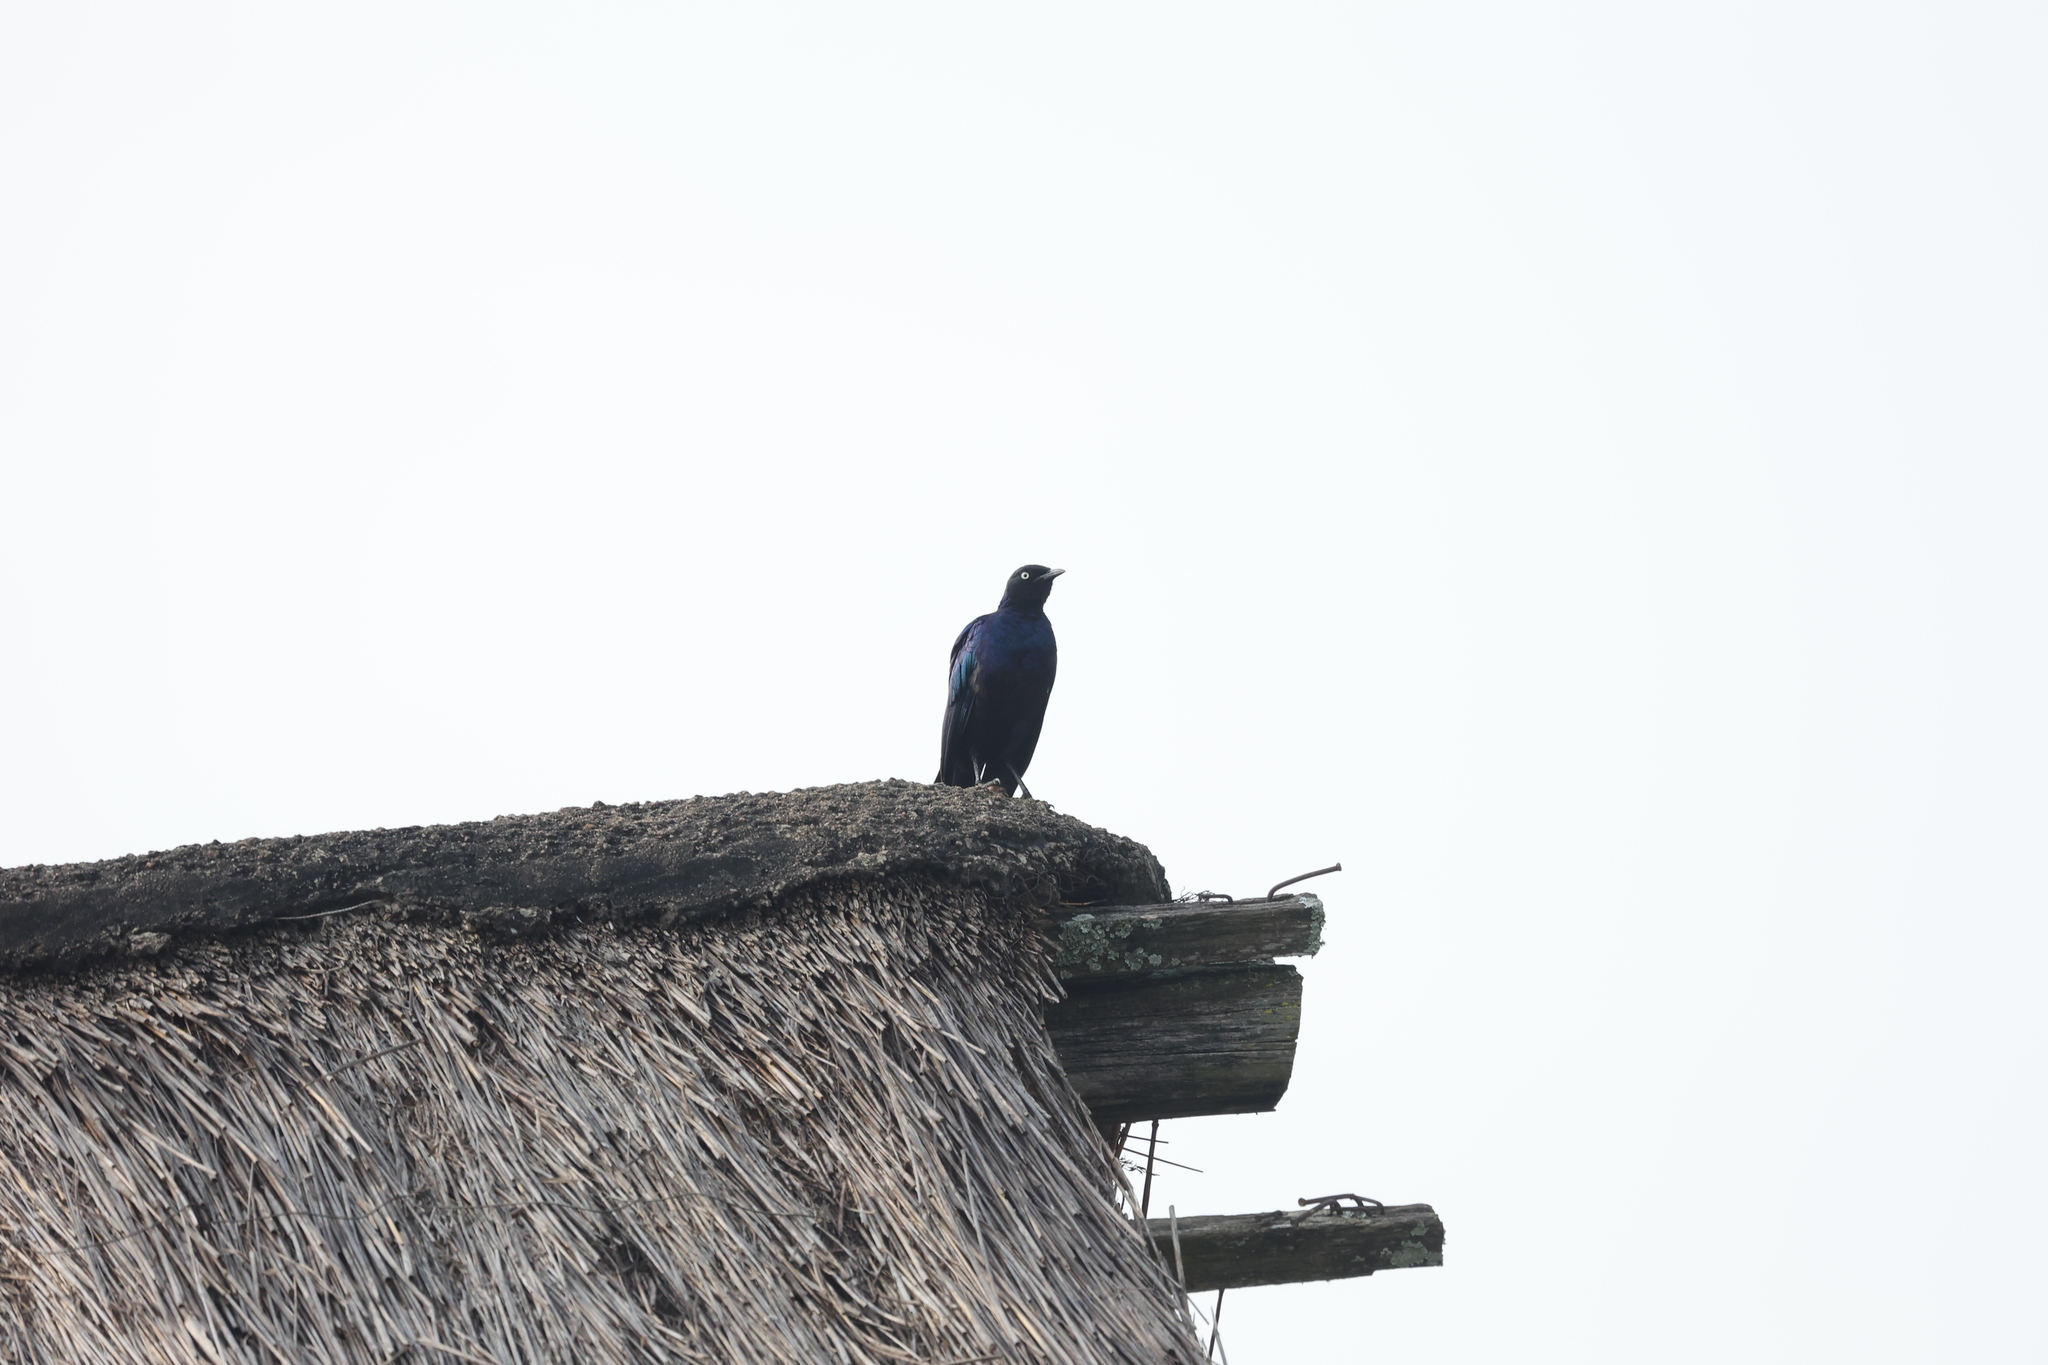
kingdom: Animalia
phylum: Chordata
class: Aves
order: Passeriformes
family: Sturnidae
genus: Lamprotornis
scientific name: Lamprotornis purpuroptera
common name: Rüppell's starling
